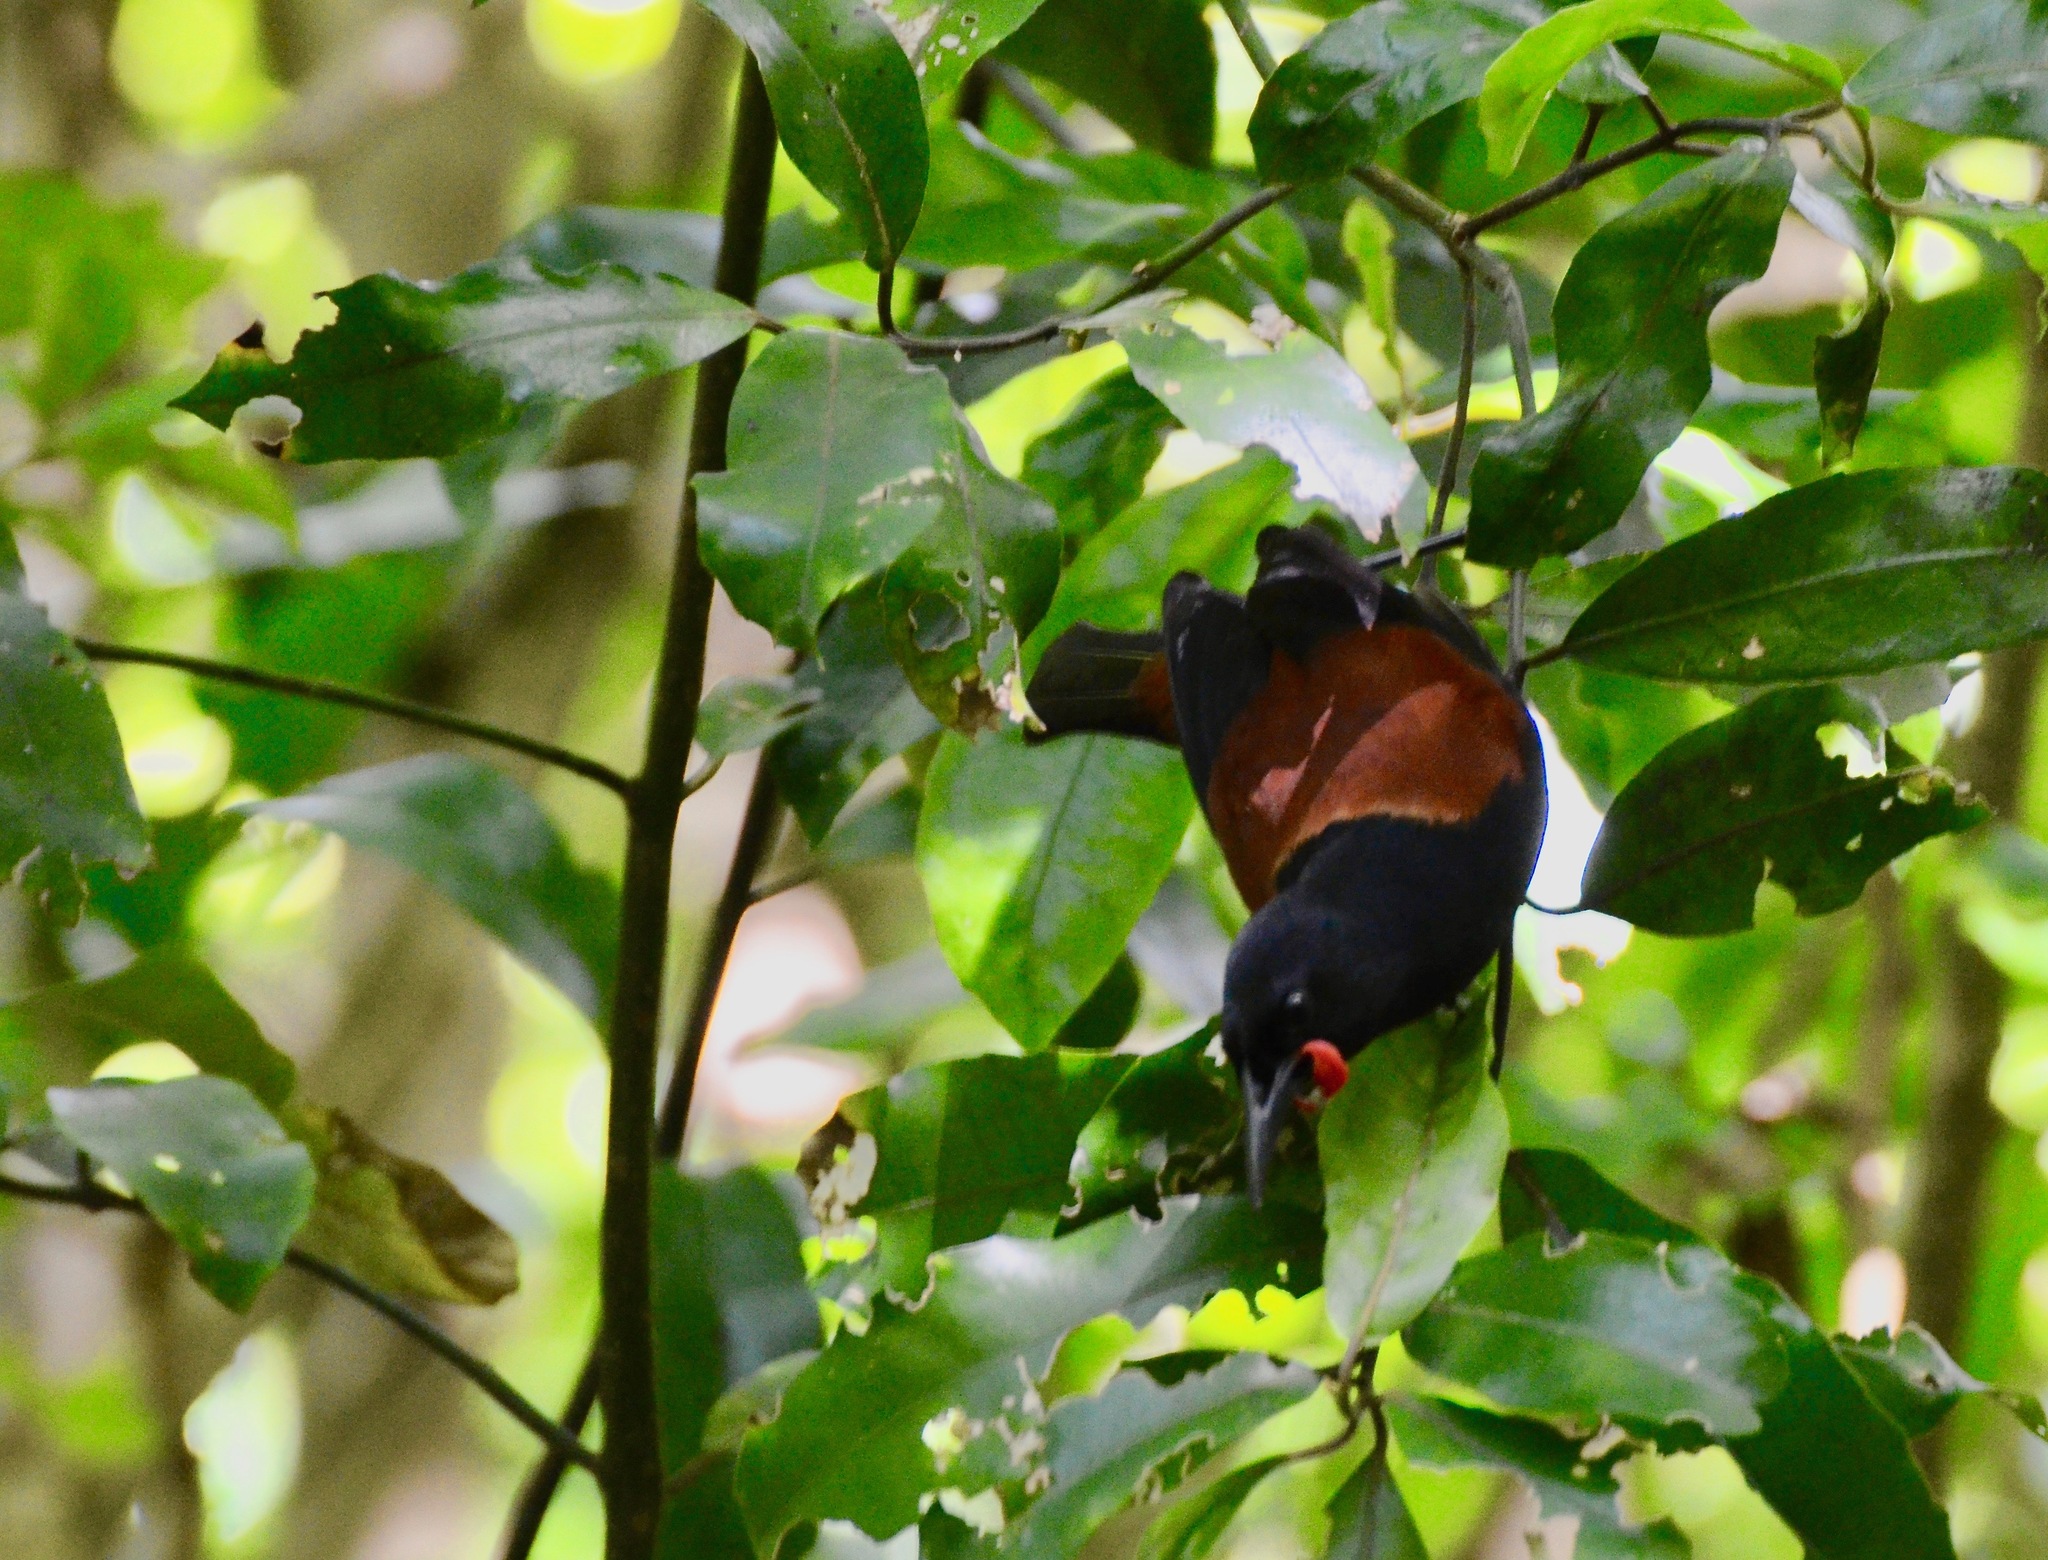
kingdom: Animalia
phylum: Chordata
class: Aves
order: Passeriformes
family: Callaeatidae
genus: Philesturnus
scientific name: Philesturnus carunculatus
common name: South island saddleback
